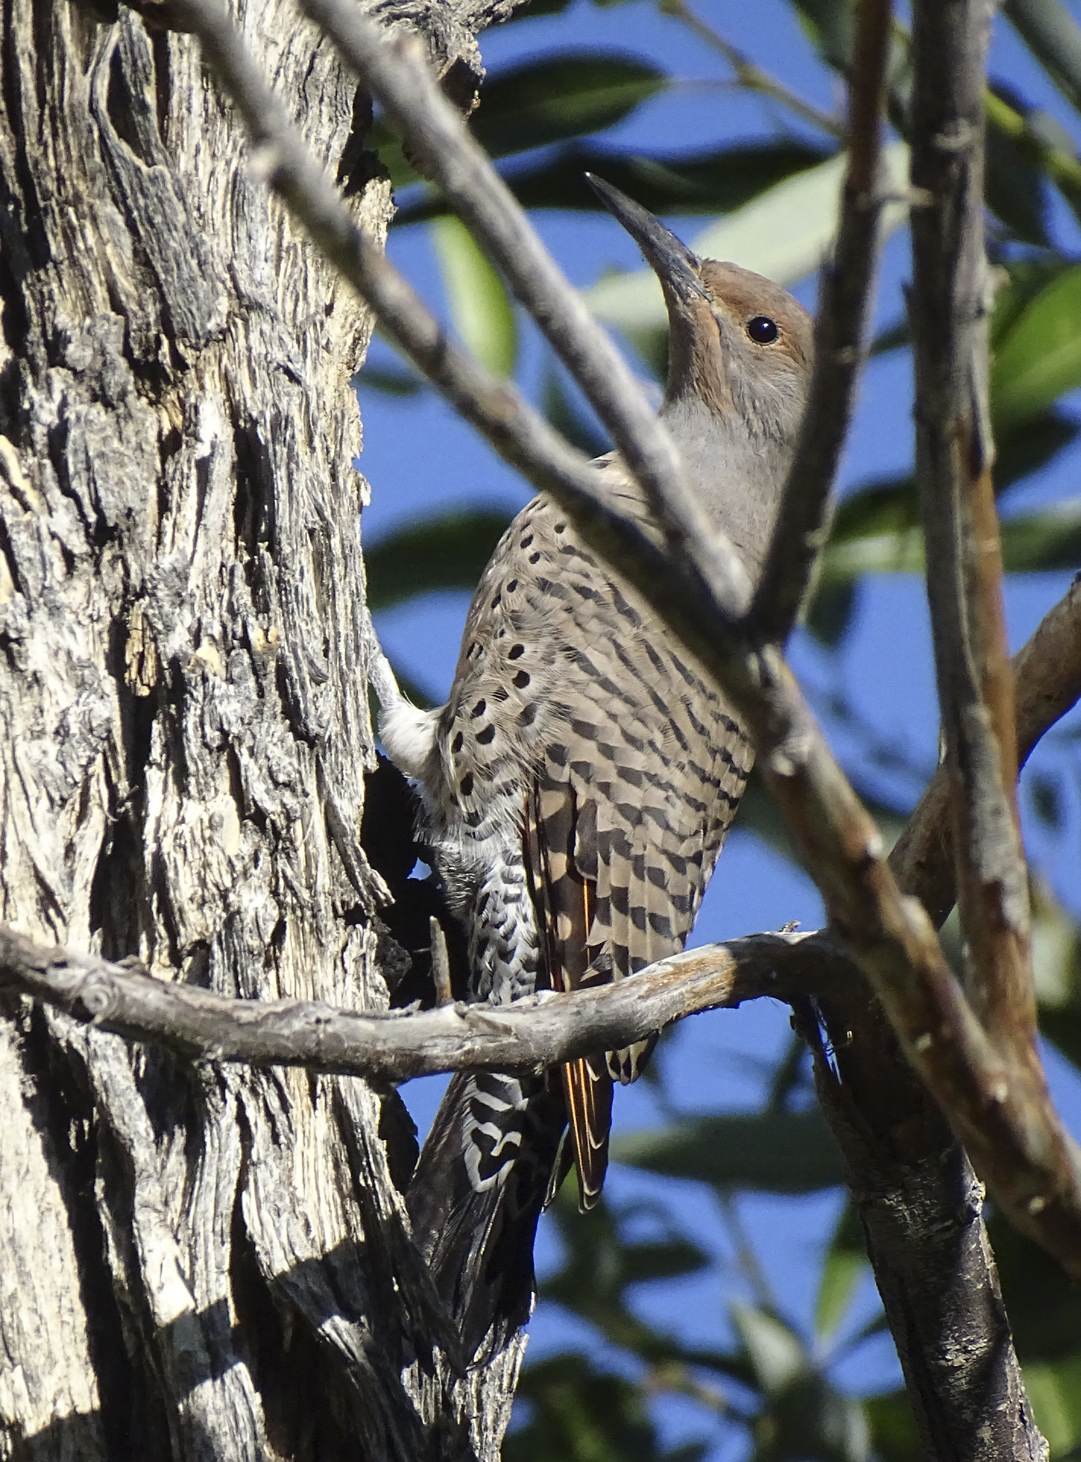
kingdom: Animalia
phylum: Chordata
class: Aves
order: Piciformes
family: Picidae
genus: Colaptes
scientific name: Colaptes auratus
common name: Northern flicker
